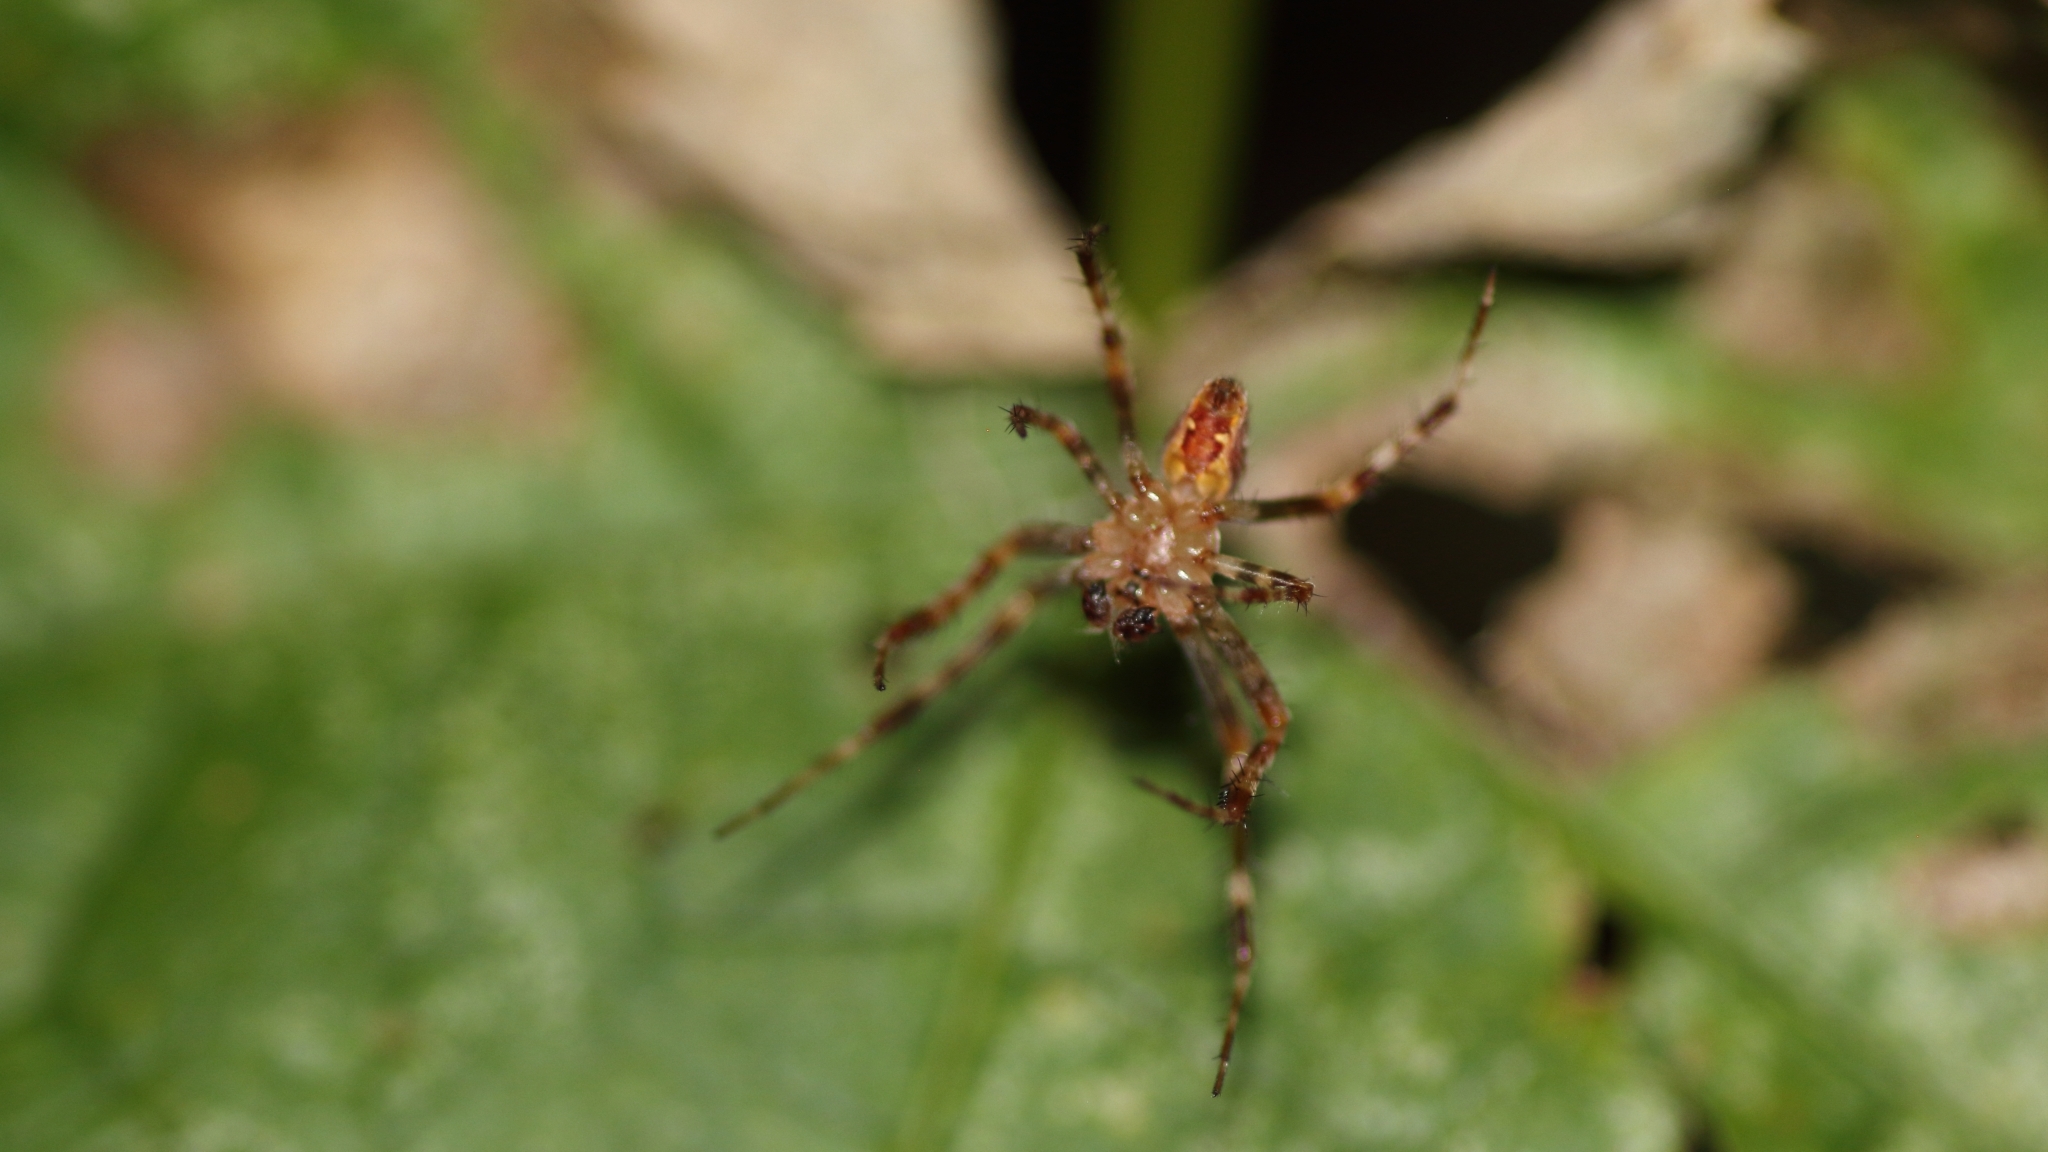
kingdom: Animalia
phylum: Arthropoda
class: Arachnida
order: Araneae
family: Araneidae
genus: Araneus
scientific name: Araneus diadematus
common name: Cross orbweaver
